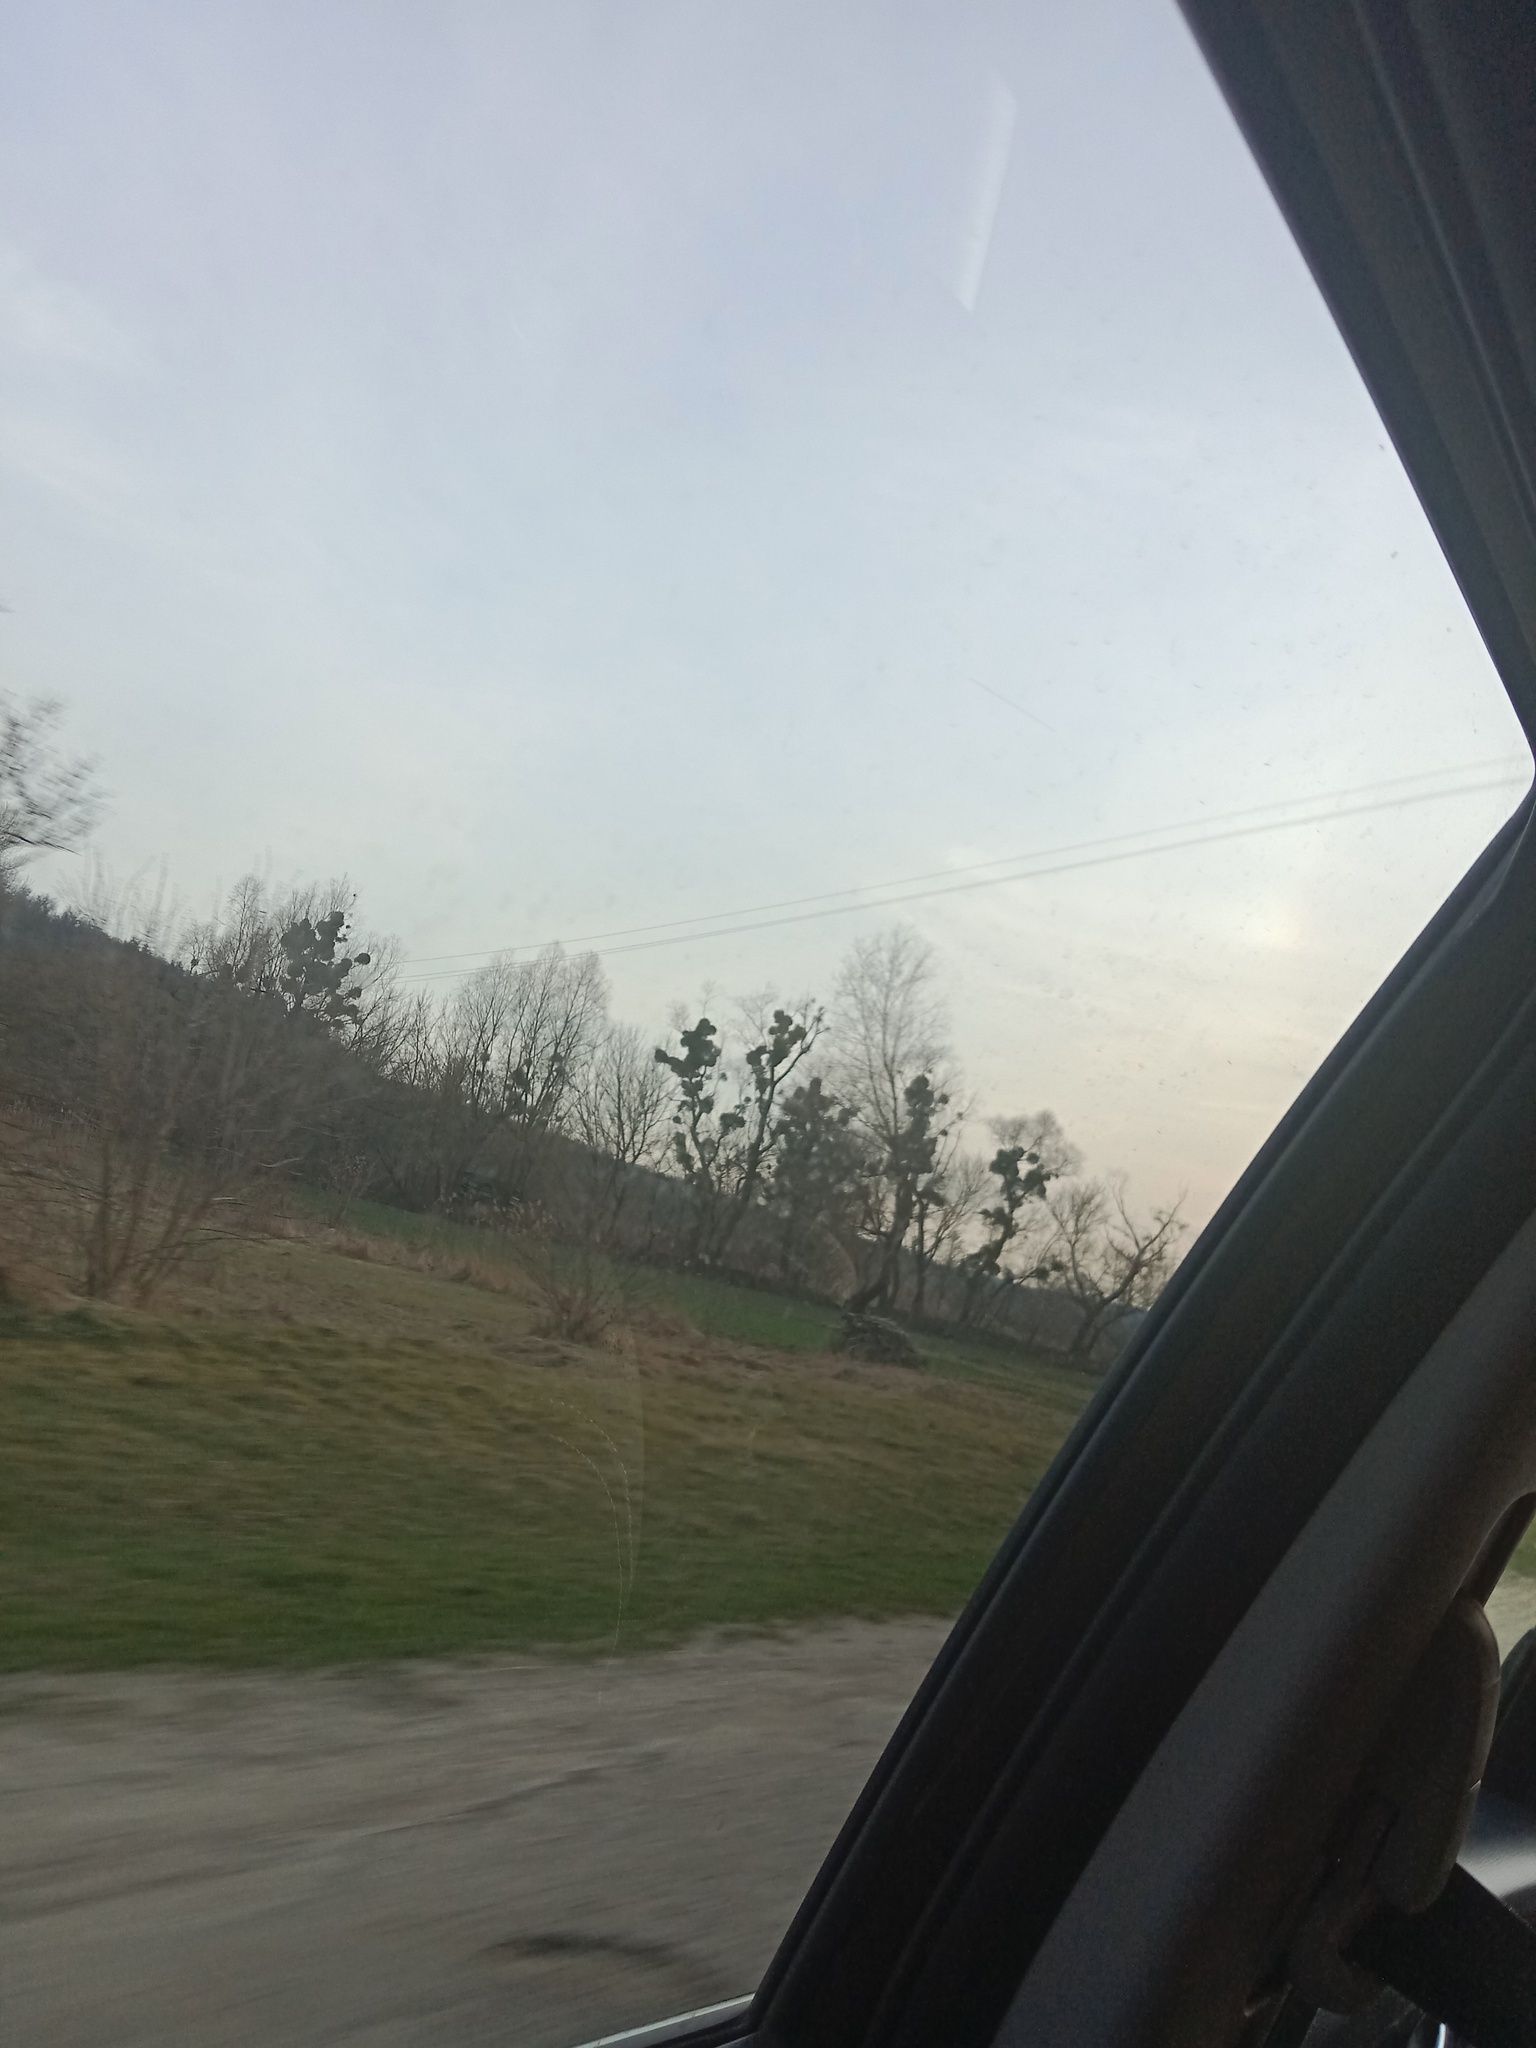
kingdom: Plantae
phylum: Tracheophyta
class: Magnoliopsida
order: Santalales
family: Viscaceae
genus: Viscum
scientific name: Viscum album
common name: Mistletoe
